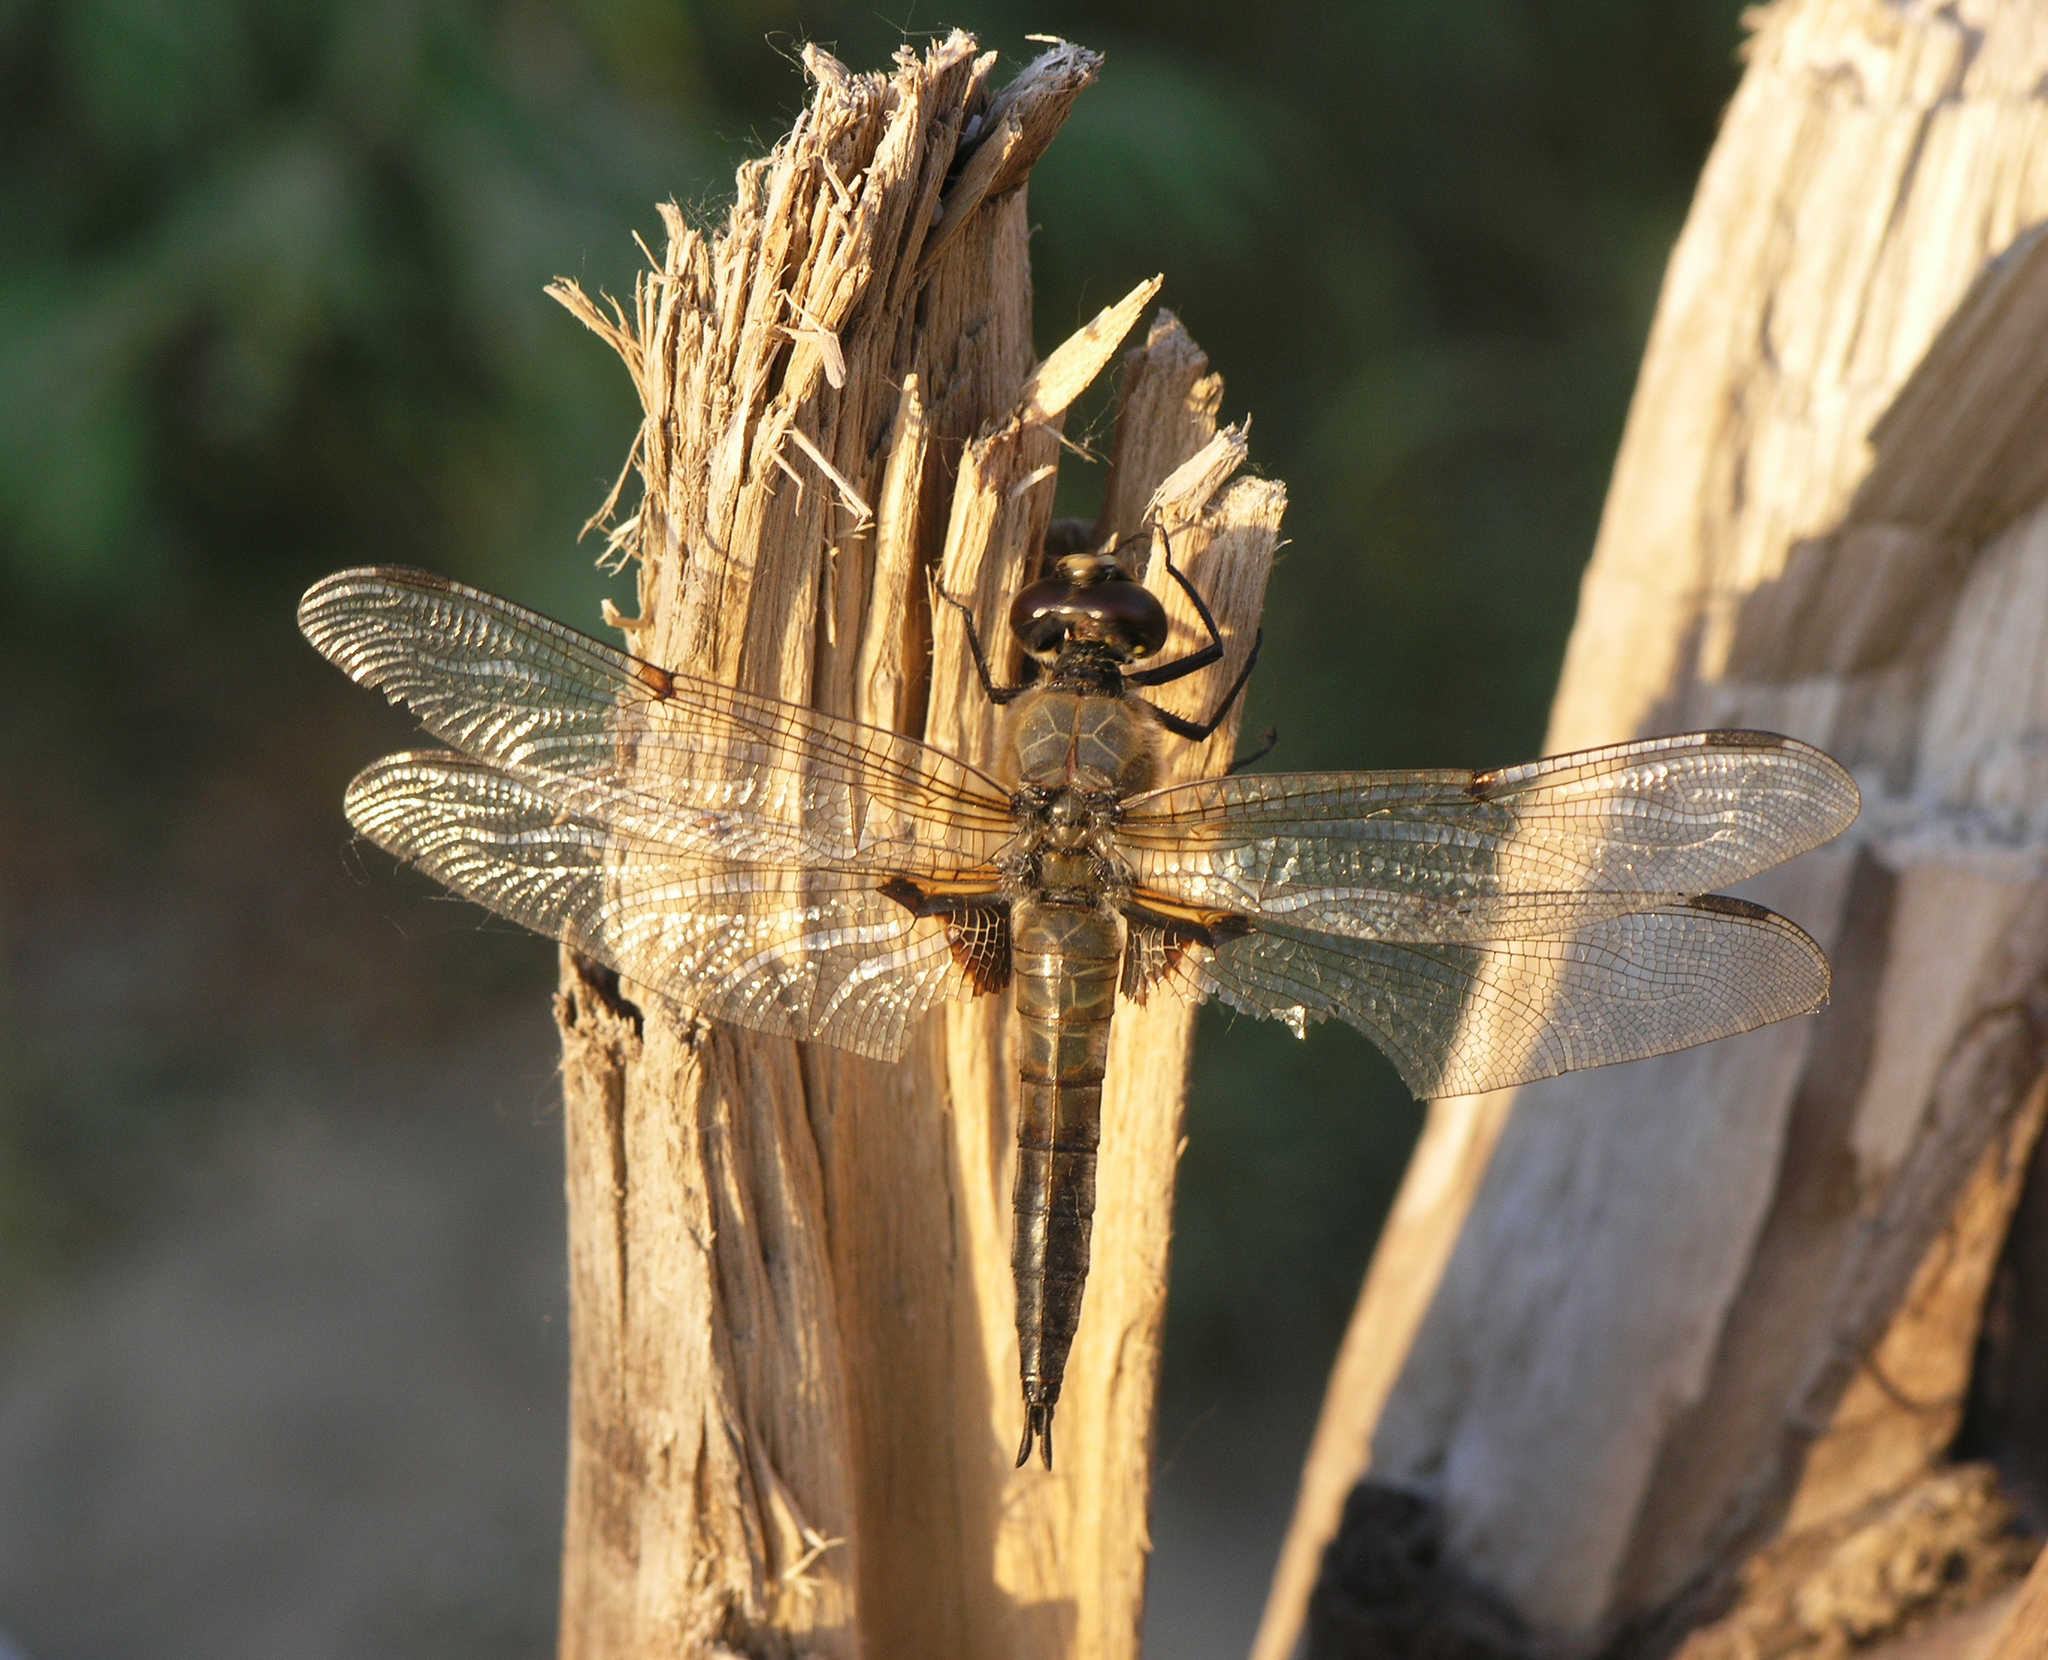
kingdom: Animalia
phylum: Arthropoda
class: Insecta
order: Odonata
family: Libellulidae
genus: Libellula
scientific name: Libellula quadrimaculata
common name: Four-spotted chaser
